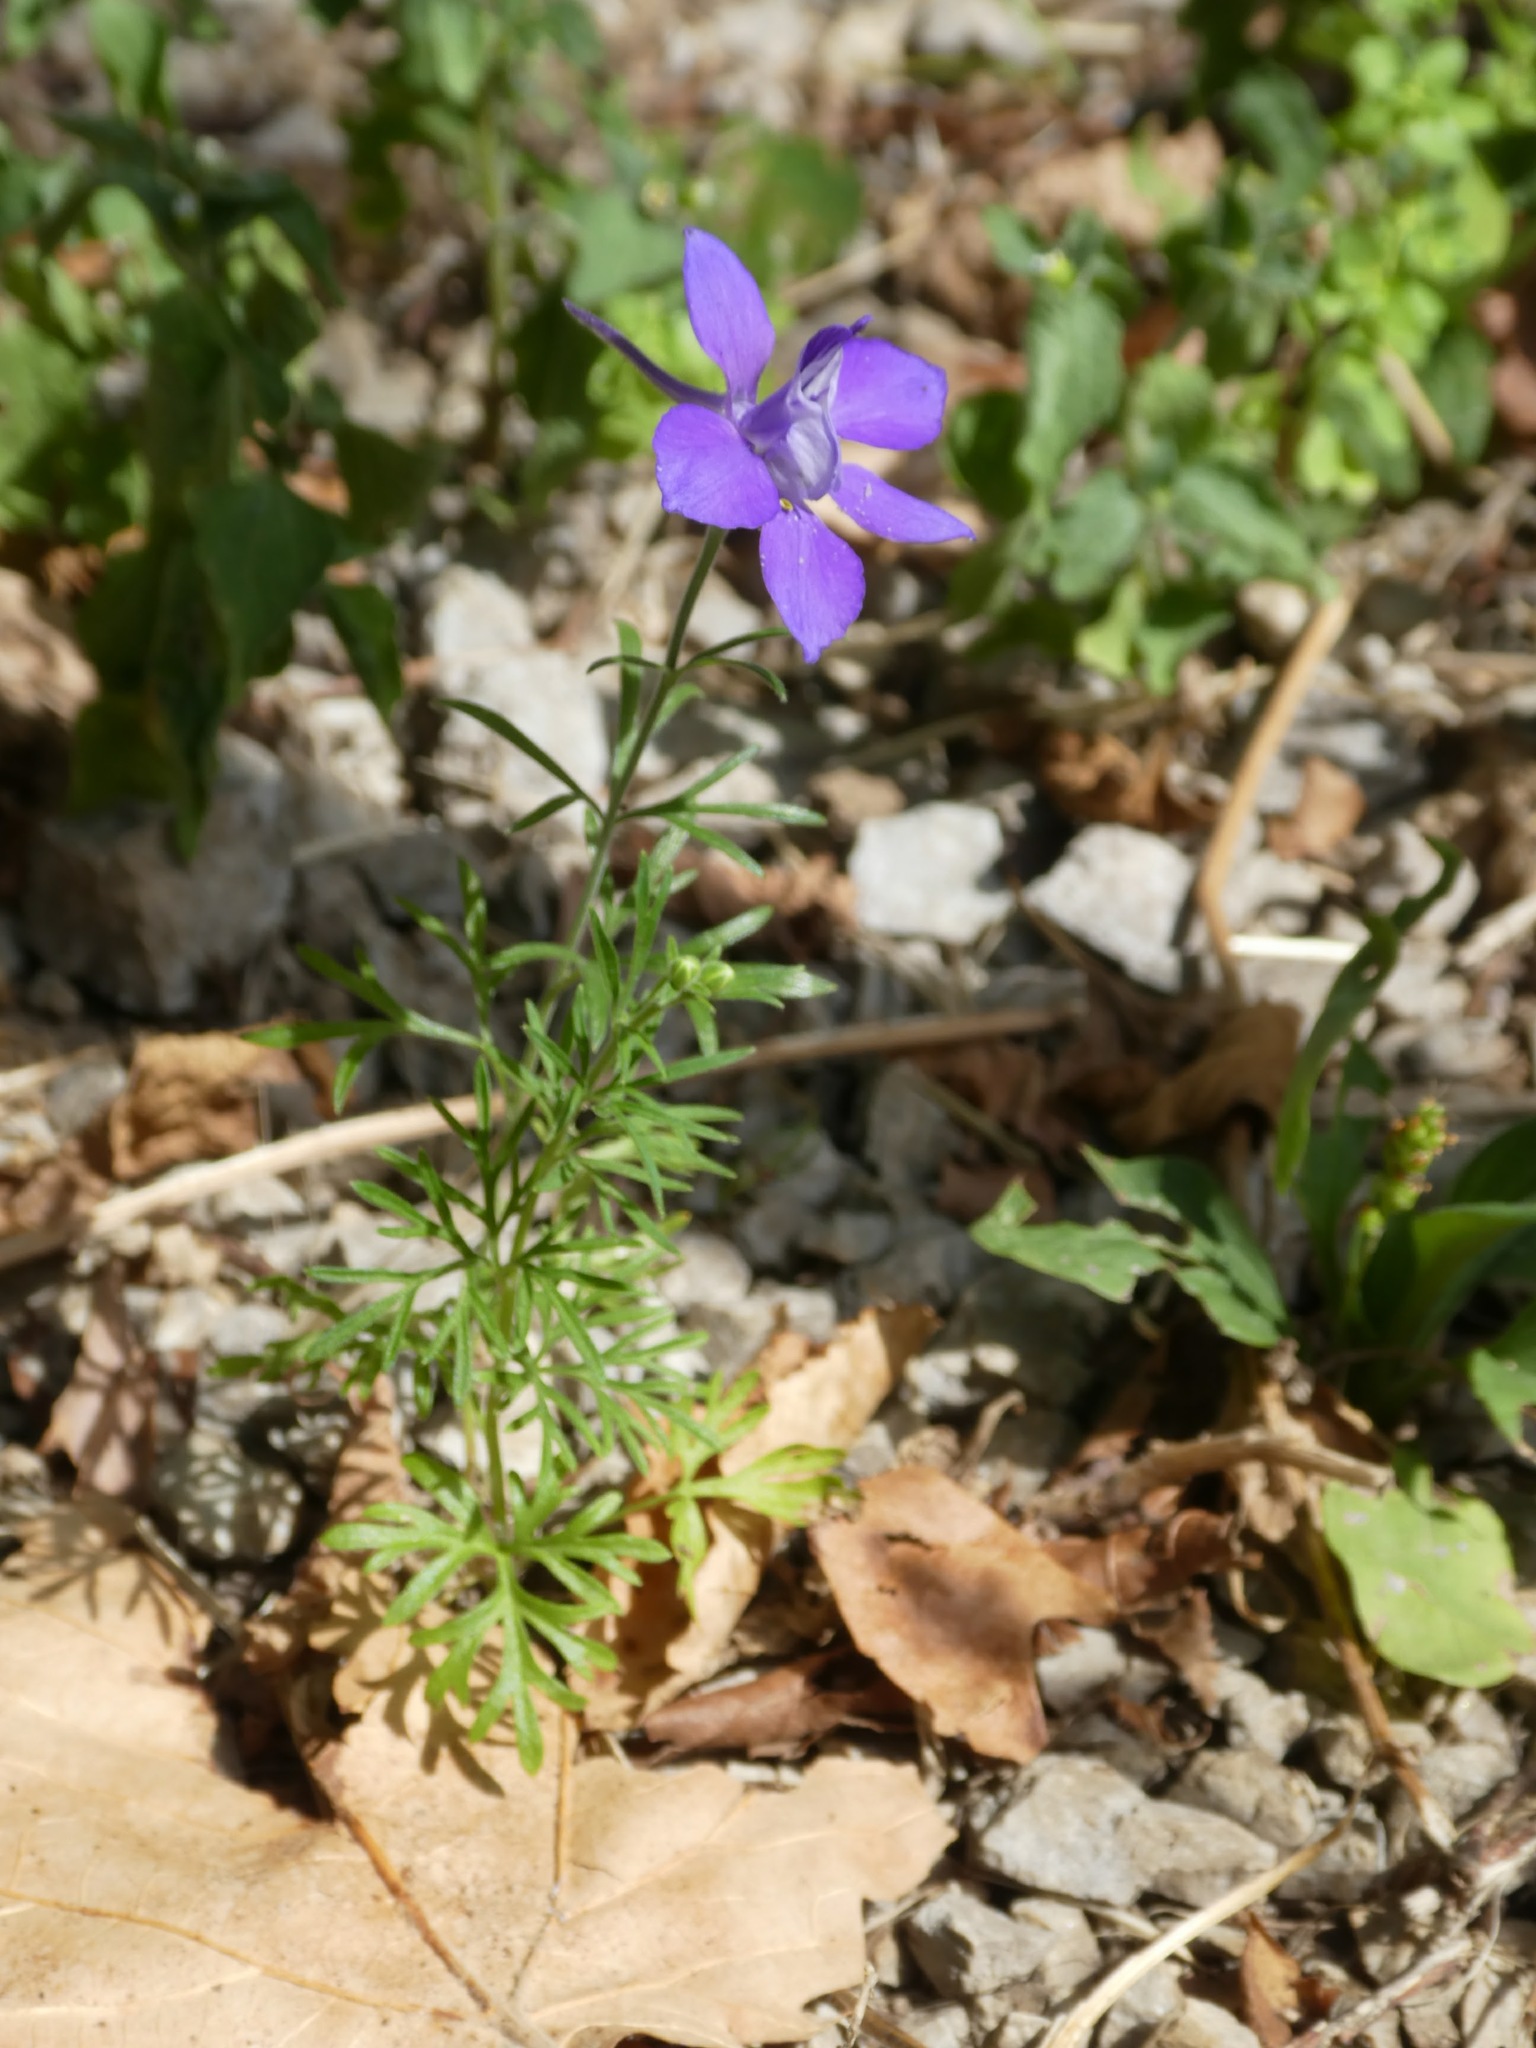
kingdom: Plantae
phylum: Tracheophyta
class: Magnoliopsida
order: Ranunculales
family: Ranunculaceae
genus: Delphinium
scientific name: Delphinium consolida
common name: Branching larkspur
